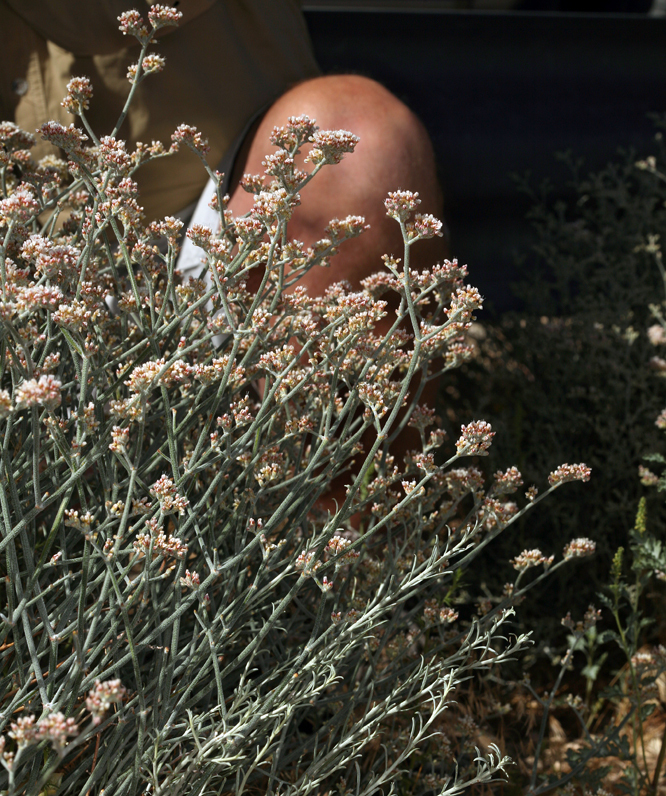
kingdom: Plantae
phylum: Tracheophyta
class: Magnoliopsida
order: Caryophyllales
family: Polygonaceae
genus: Eriogonum
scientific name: Eriogonum nummulare
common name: Kearney wild buckwheat
